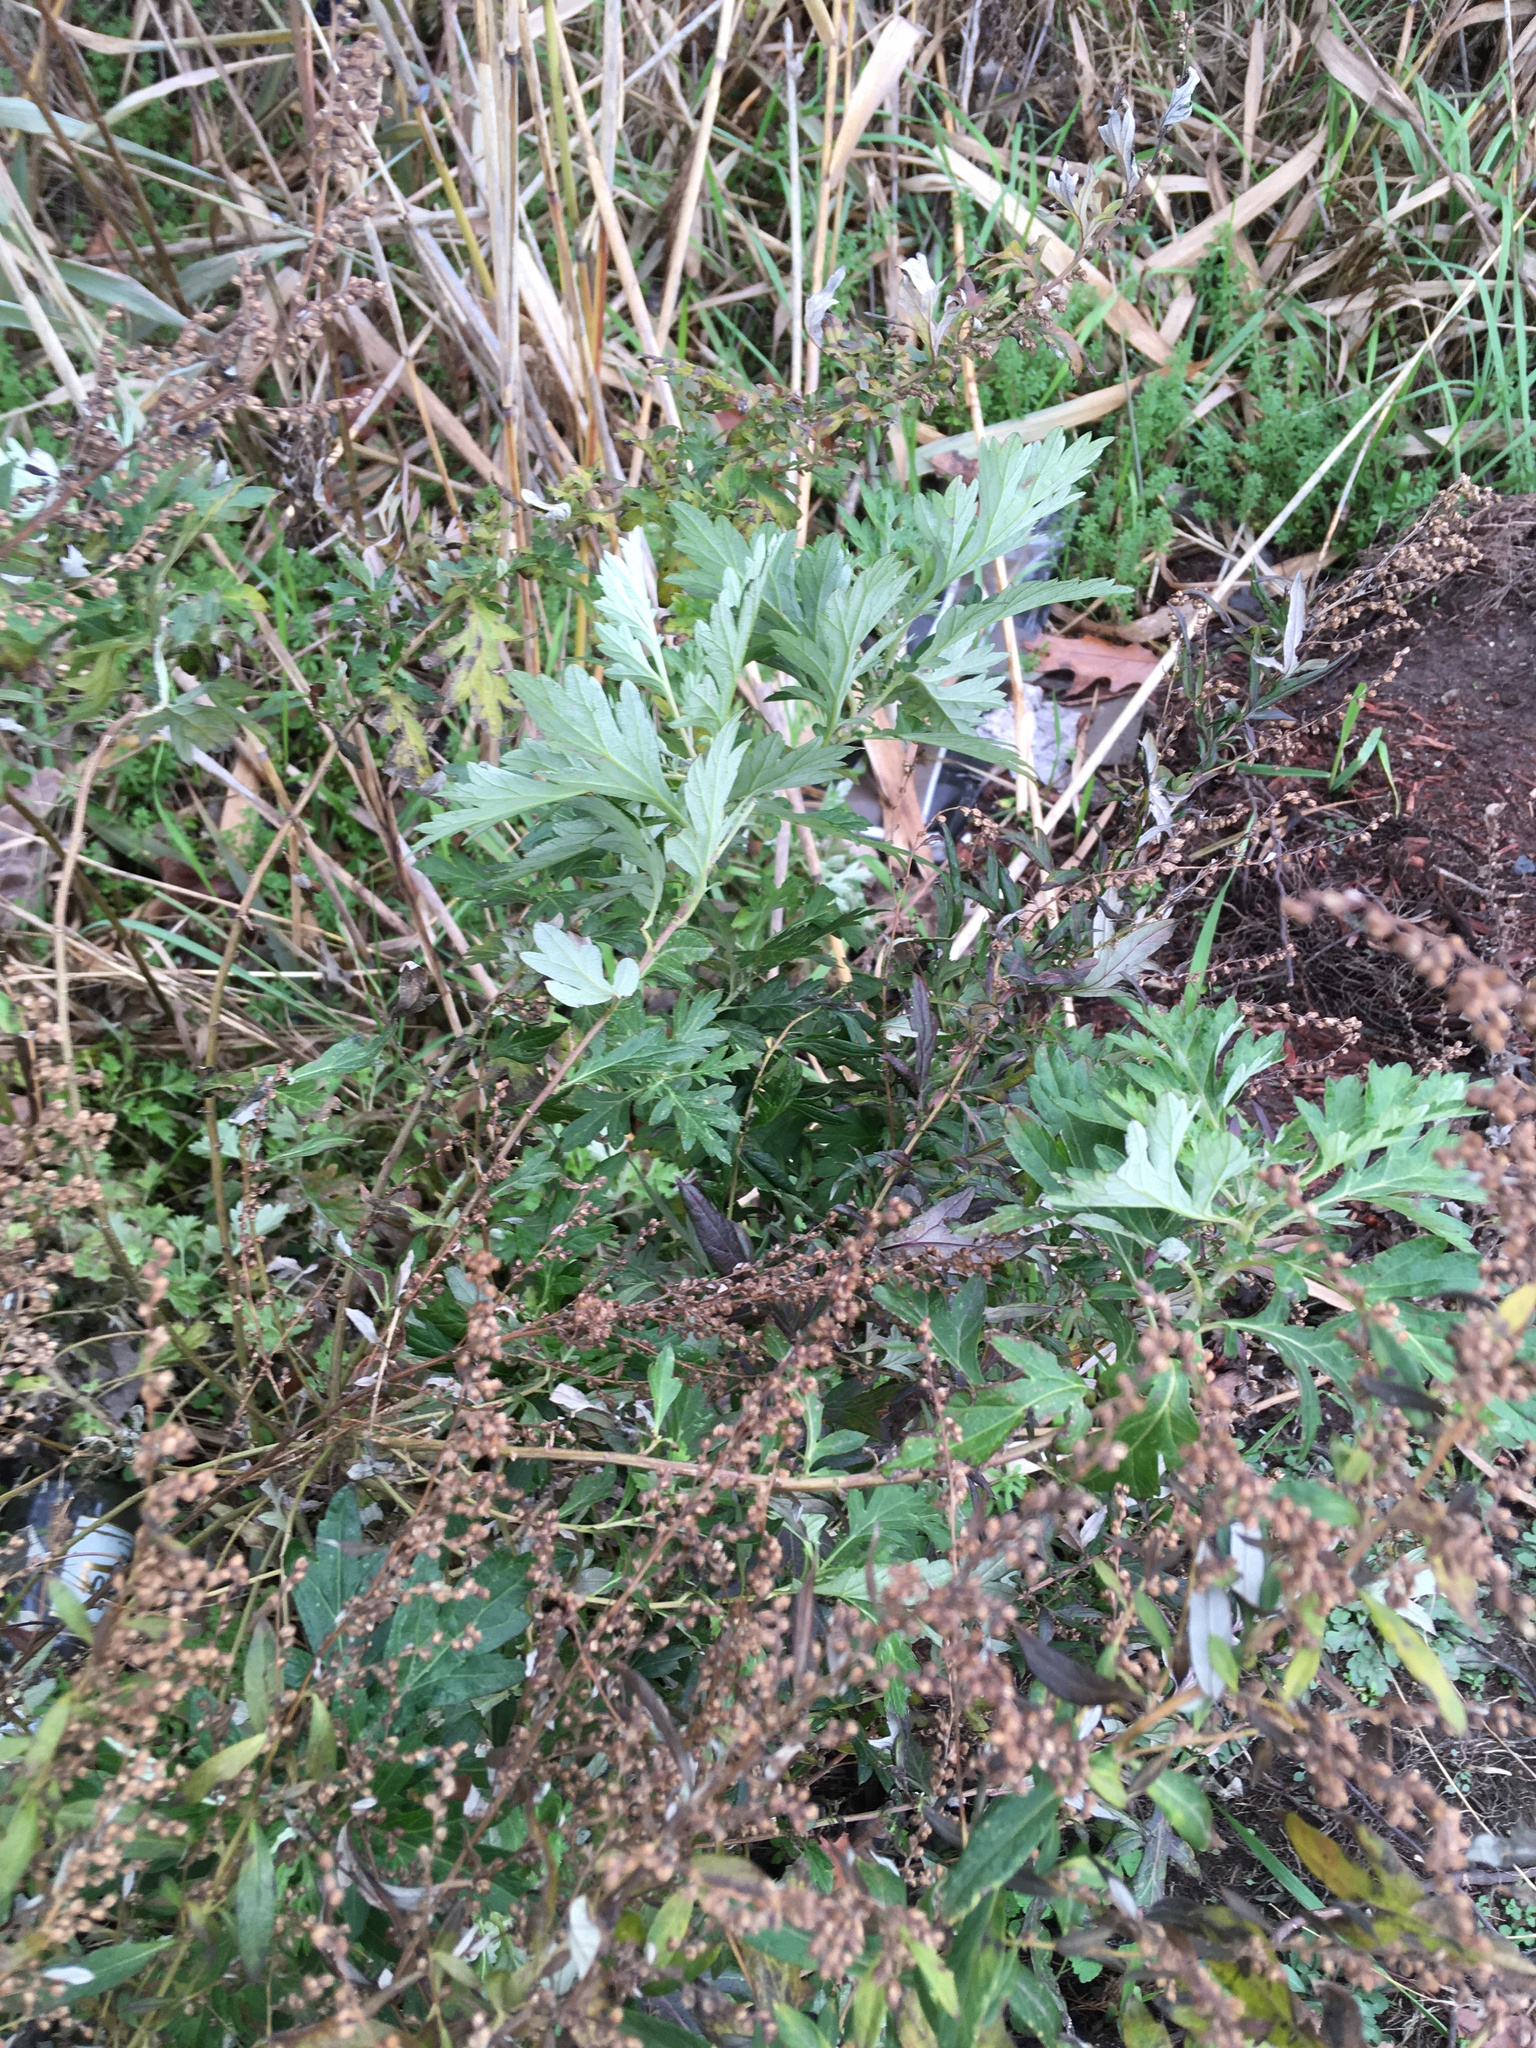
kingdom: Plantae
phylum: Tracheophyta
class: Magnoliopsida
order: Asterales
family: Asteraceae
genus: Artemisia
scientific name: Artemisia vulgaris
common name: Mugwort
